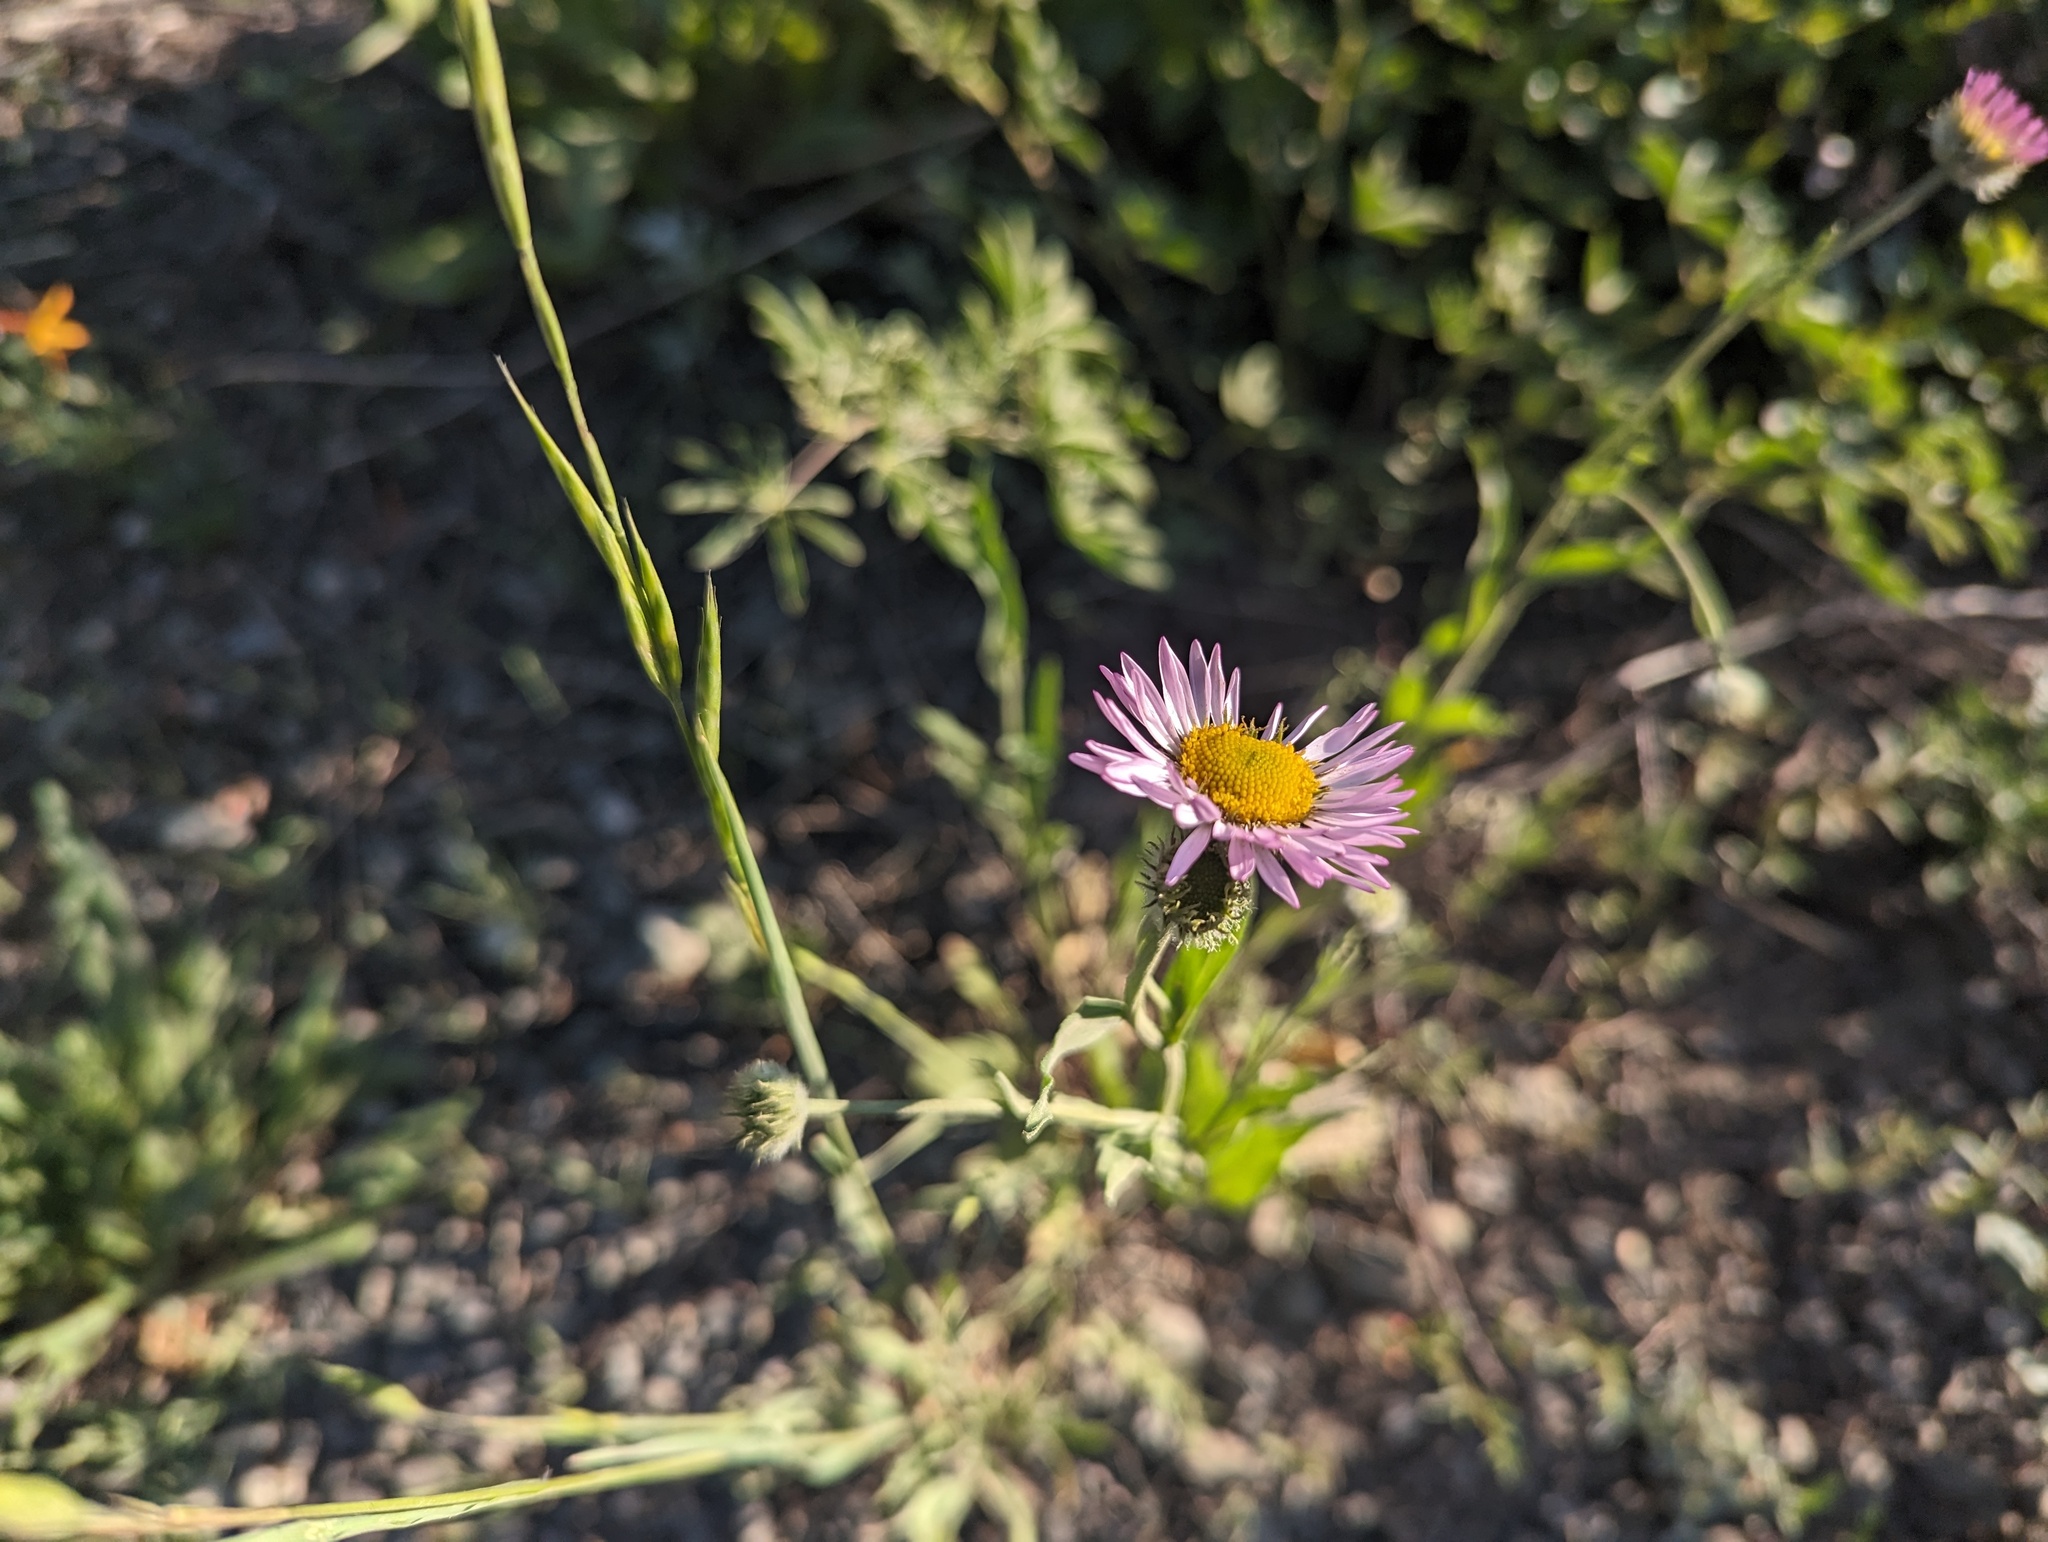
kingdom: Plantae
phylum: Tracheophyta
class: Magnoliopsida
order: Asterales
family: Asteraceae
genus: Erigeron
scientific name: Erigeron aliceae
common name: Alice eastwood's fleabane
